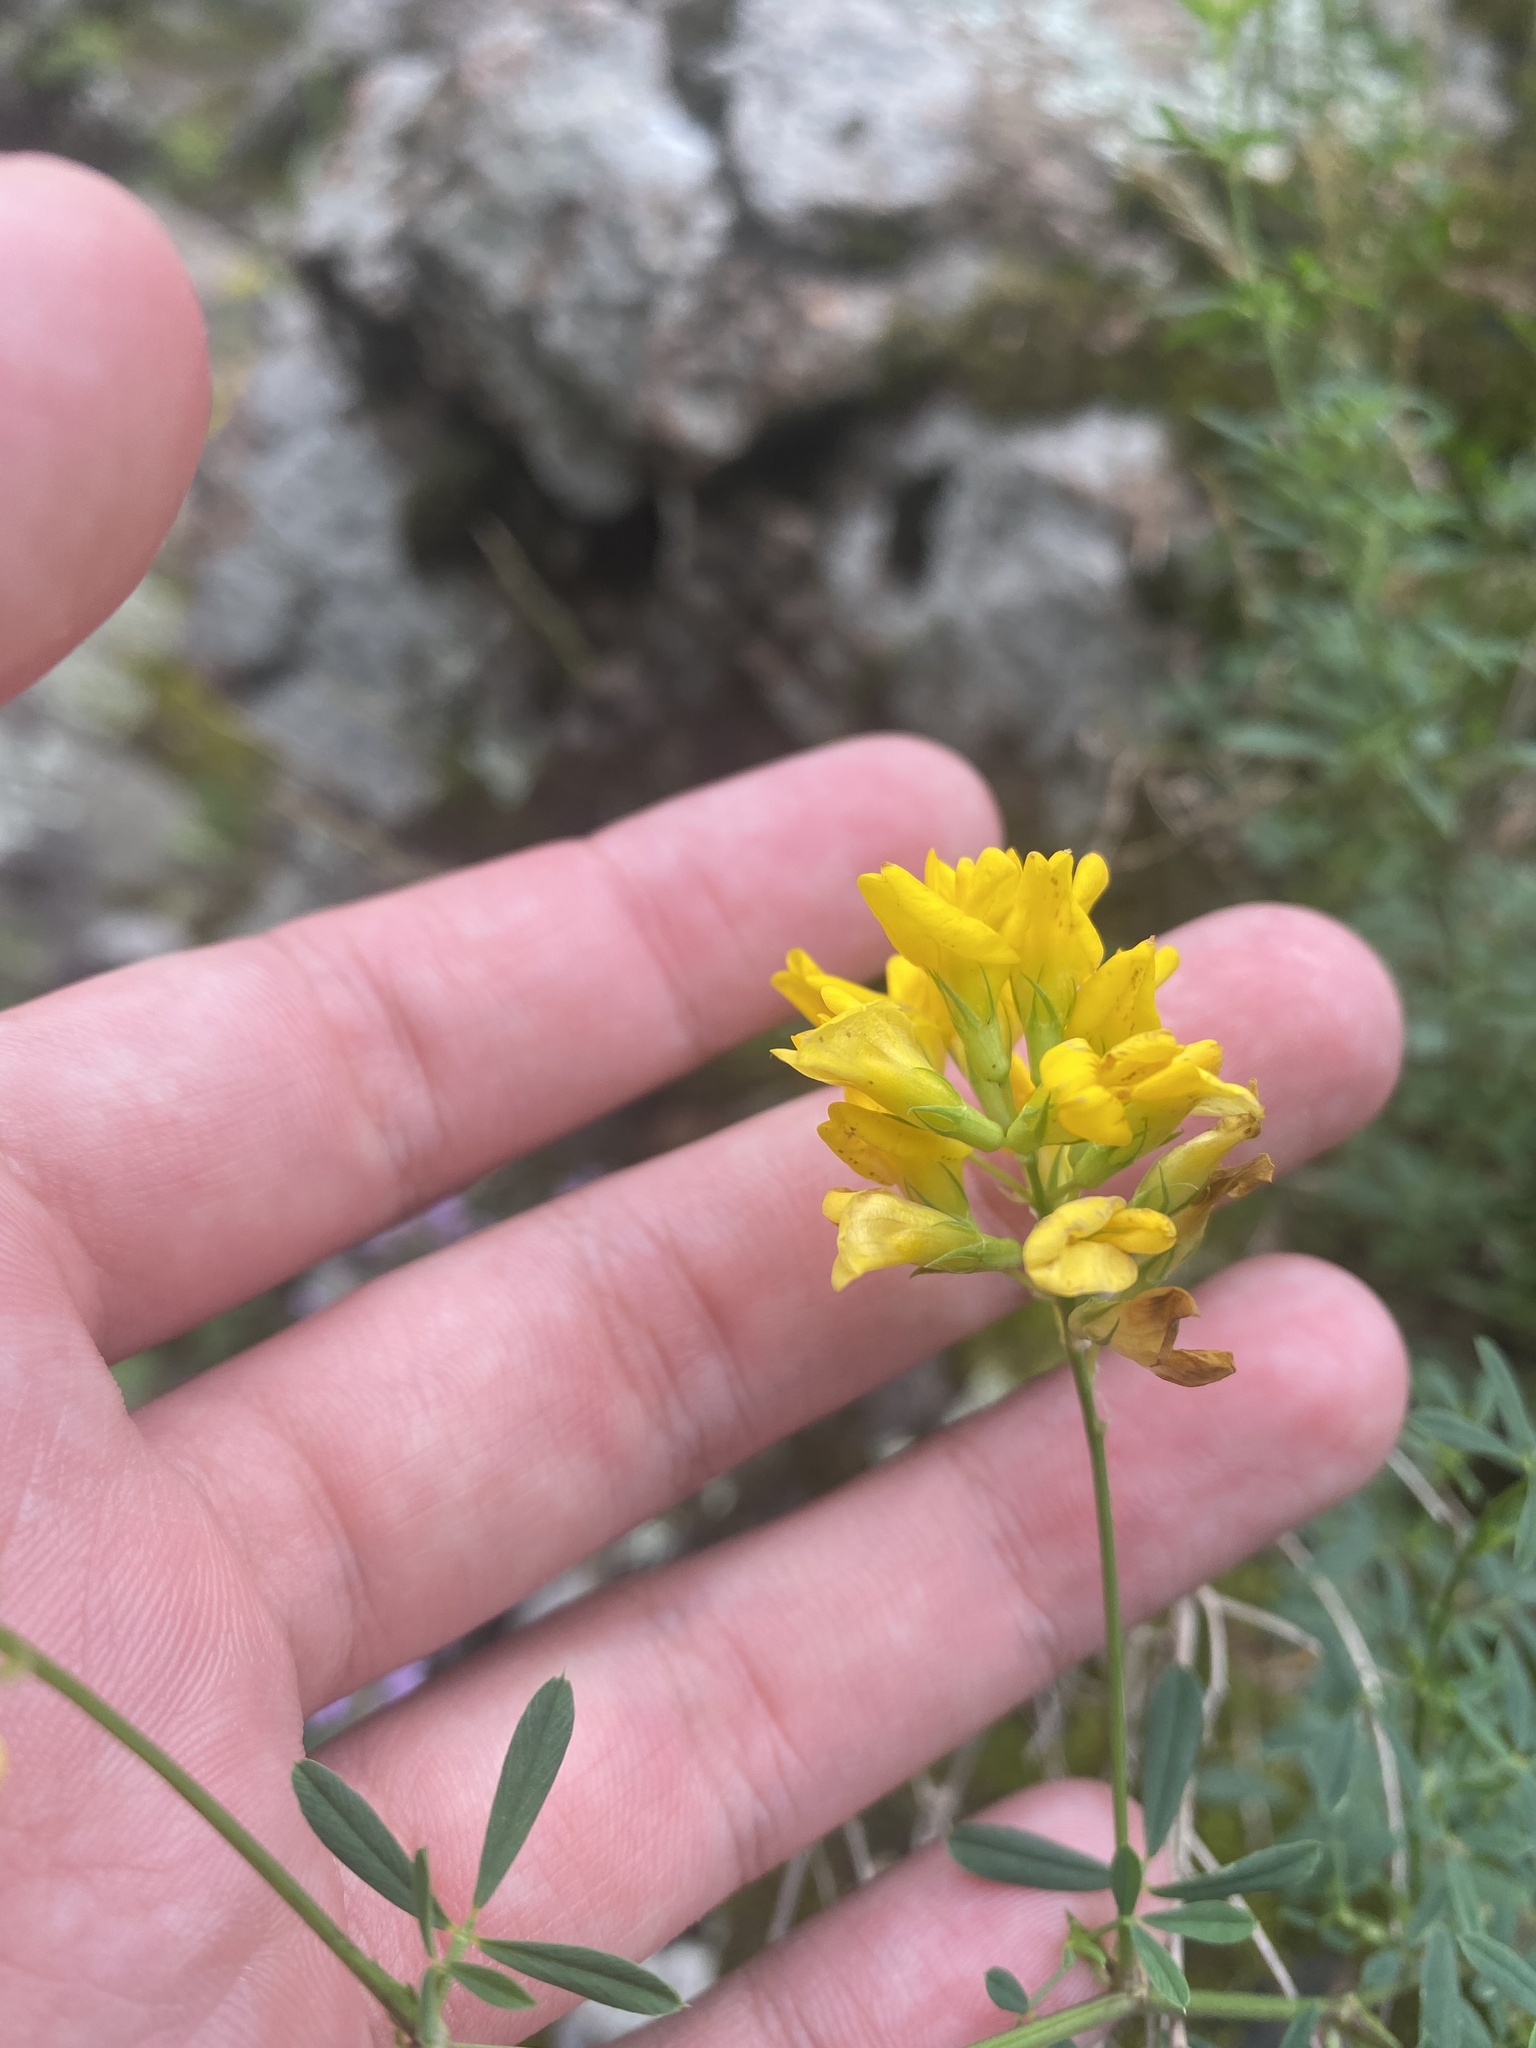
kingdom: Plantae
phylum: Tracheophyta
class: Magnoliopsida
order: Fabales
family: Fabaceae
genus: Medicago
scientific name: Medicago falcata
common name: Sickle medick
